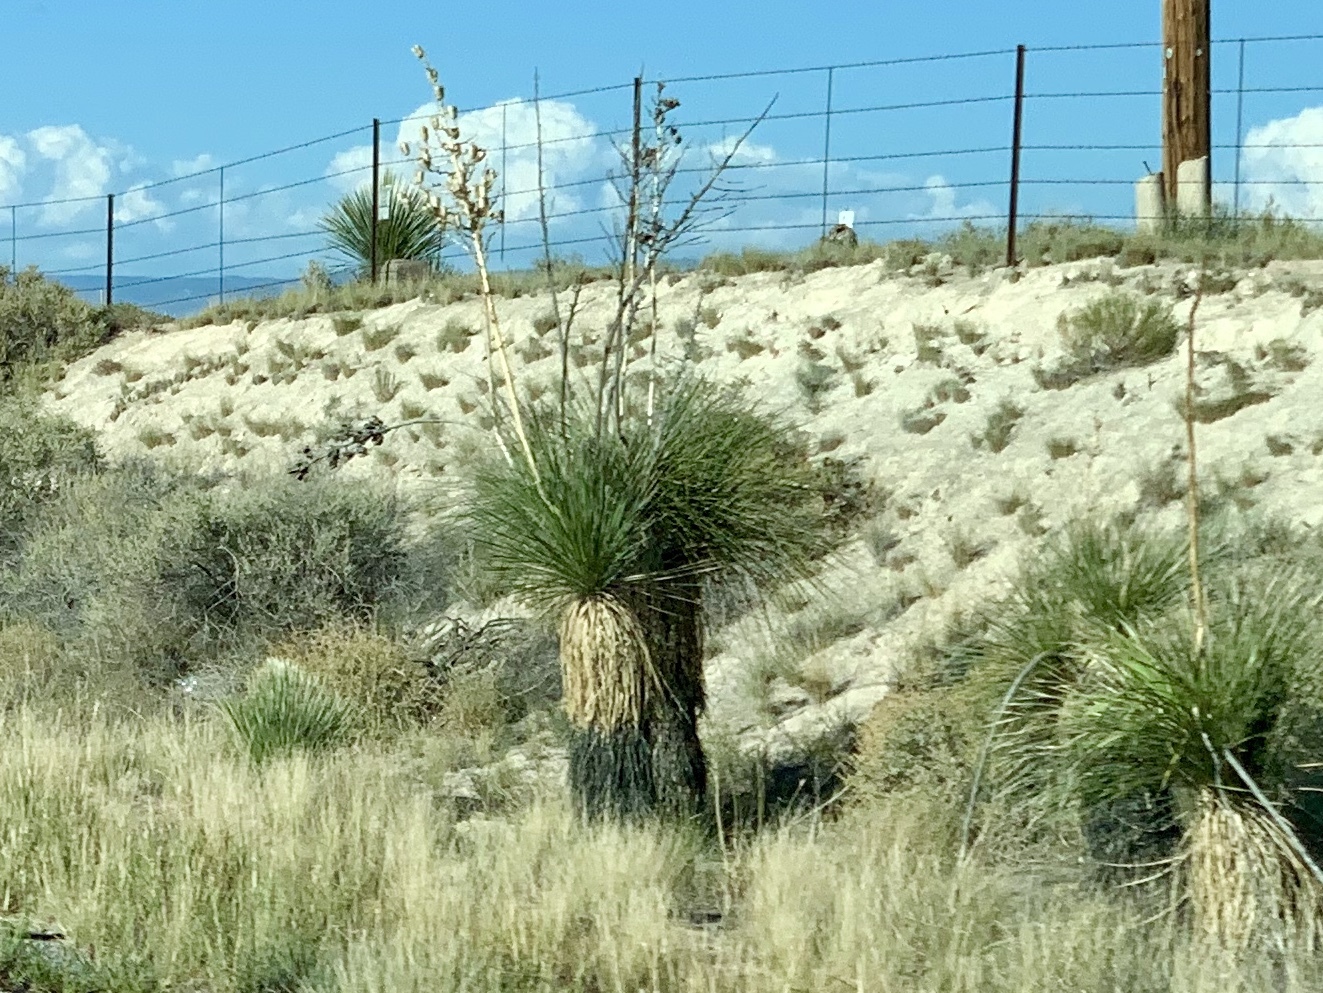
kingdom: Plantae
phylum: Tracheophyta
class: Liliopsida
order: Asparagales
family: Asparagaceae
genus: Yucca
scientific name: Yucca elata
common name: Palmella
